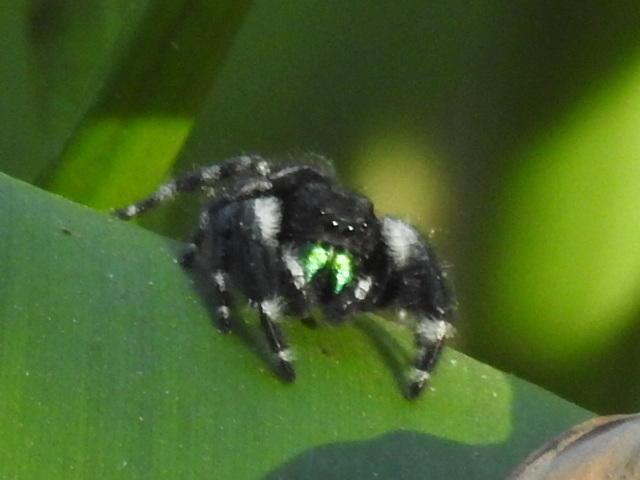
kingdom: Animalia
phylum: Arthropoda
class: Arachnida
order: Araneae
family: Salticidae
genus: Phidippus
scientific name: Phidippus audax
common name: Bold jumper
